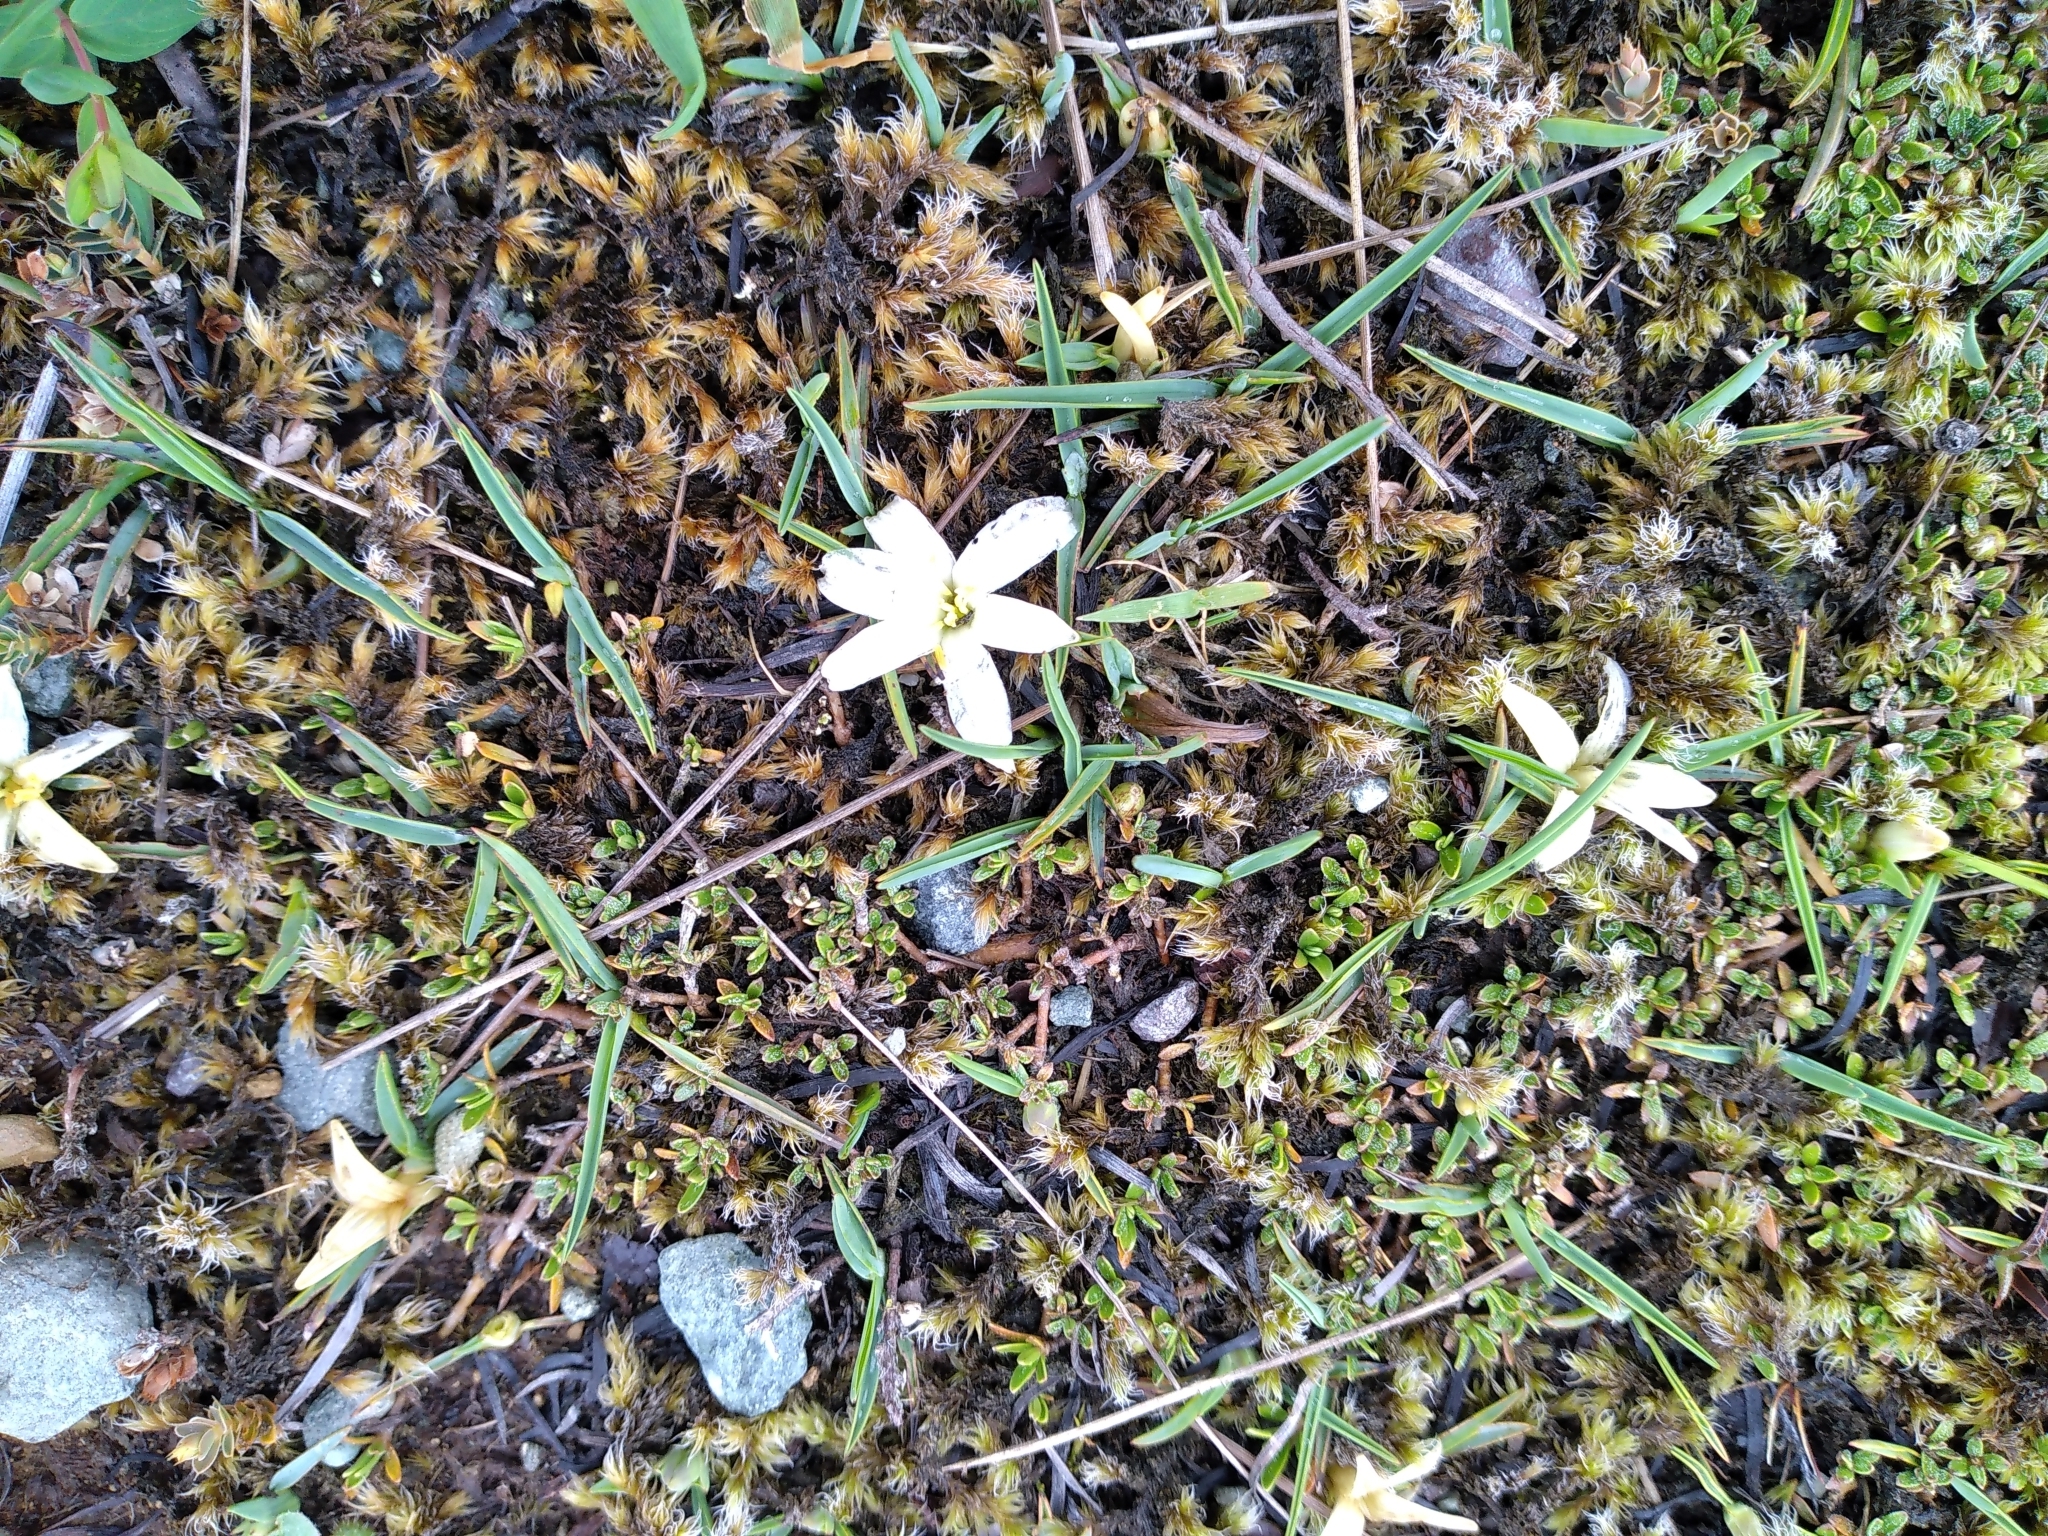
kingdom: Plantae
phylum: Tracheophyta
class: Liliopsida
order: Asparagales
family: Asphodelaceae
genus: Herpolirion
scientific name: Herpolirion novae-zelandiae
